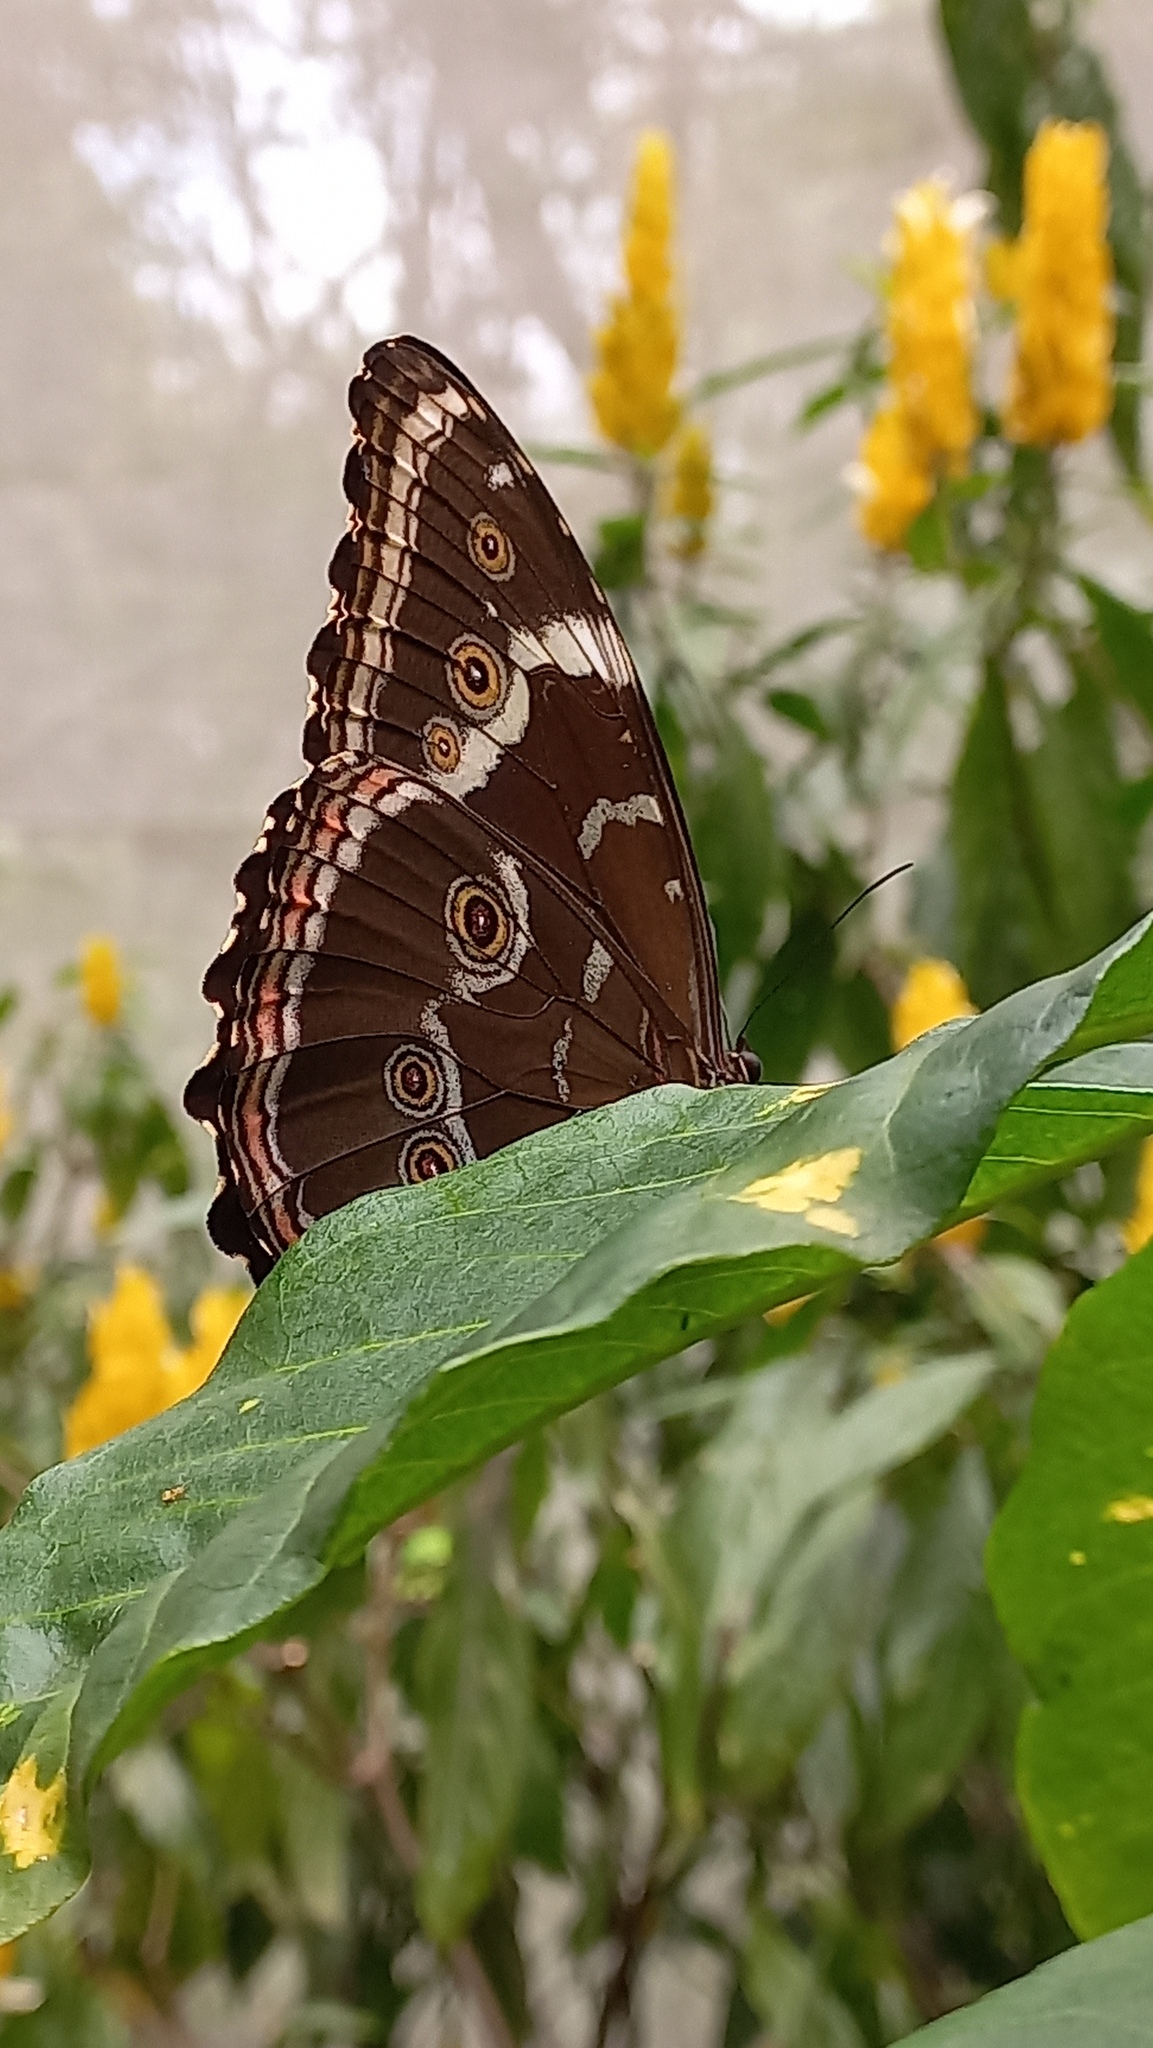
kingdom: Animalia
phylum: Arthropoda
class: Insecta
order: Lepidoptera
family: Nymphalidae
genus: Morpho
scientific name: Morpho helenor
